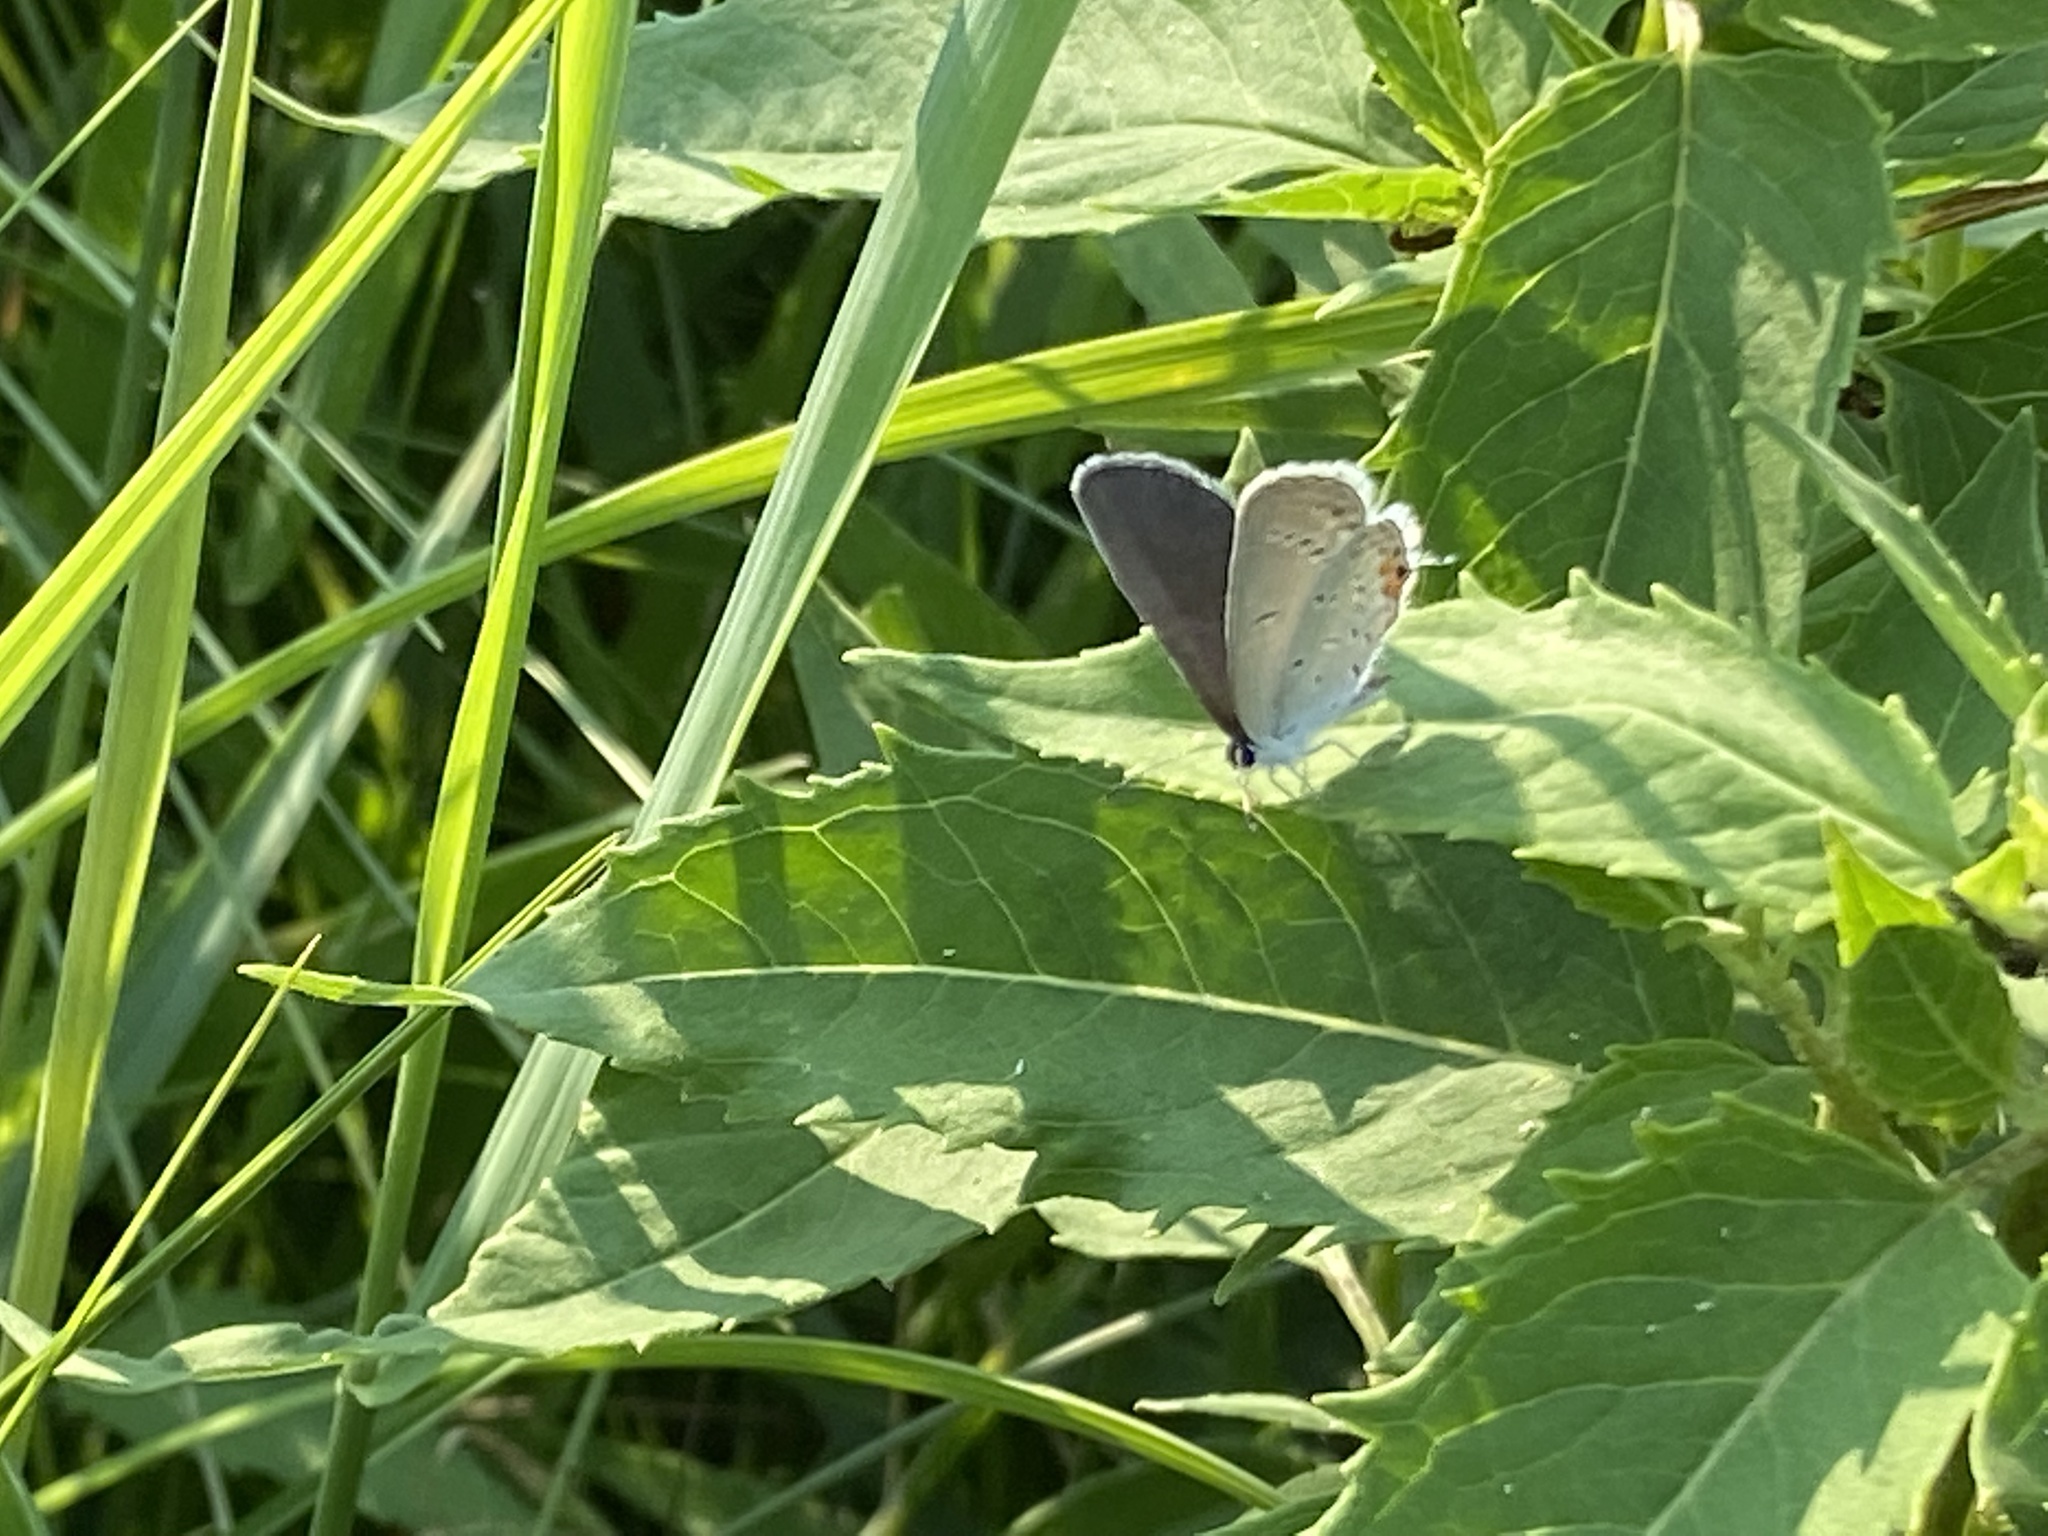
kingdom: Animalia
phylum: Arthropoda
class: Insecta
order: Lepidoptera
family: Lycaenidae
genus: Elkalyce
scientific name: Elkalyce comyntas
